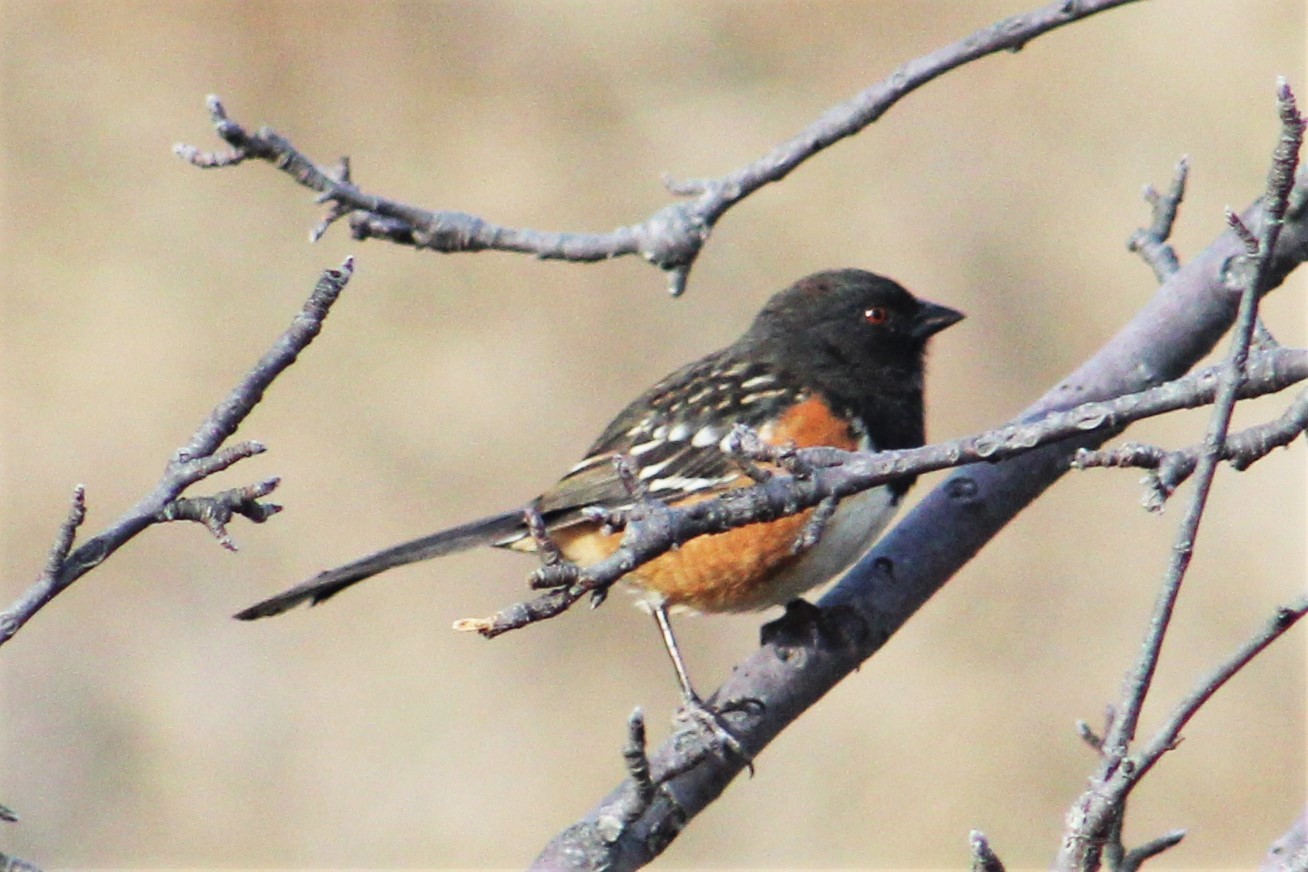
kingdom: Animalia
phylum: Chordata
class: Aves
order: Passeriformes
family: Passerellidae
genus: Pipilo
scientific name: Pipilo maculatus
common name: Spotted towhee
